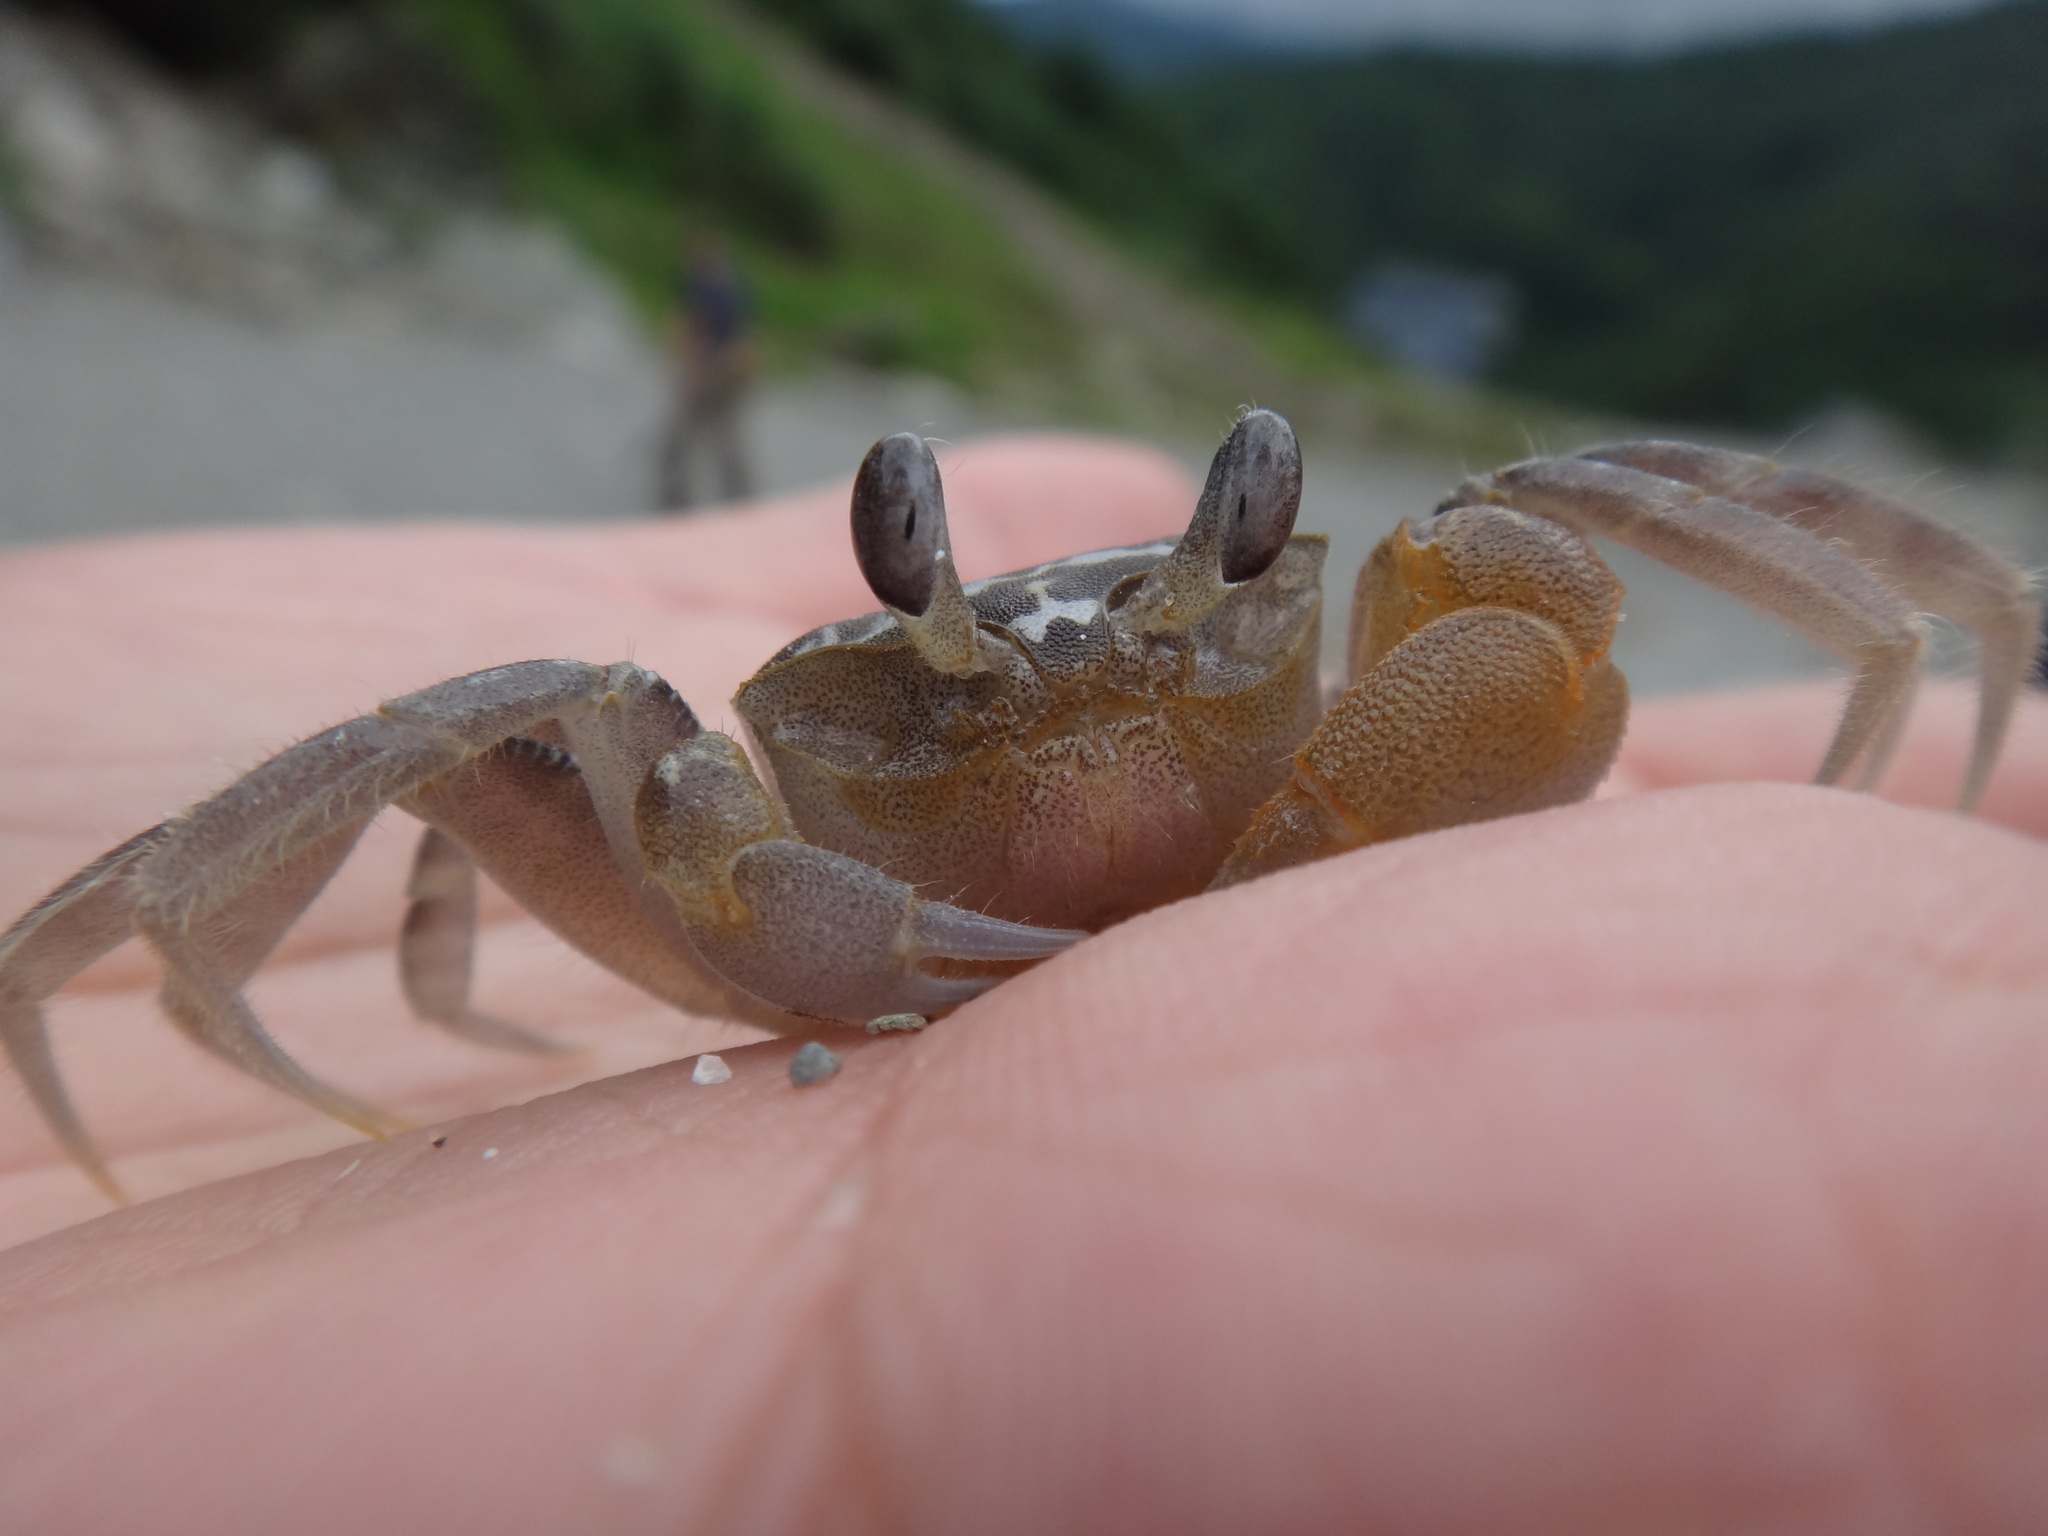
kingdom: Animalia
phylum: Arthropoda
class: Malacostraca
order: Decapoda
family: Ocypodidae
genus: Ocypode
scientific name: Ocypode sinensis
